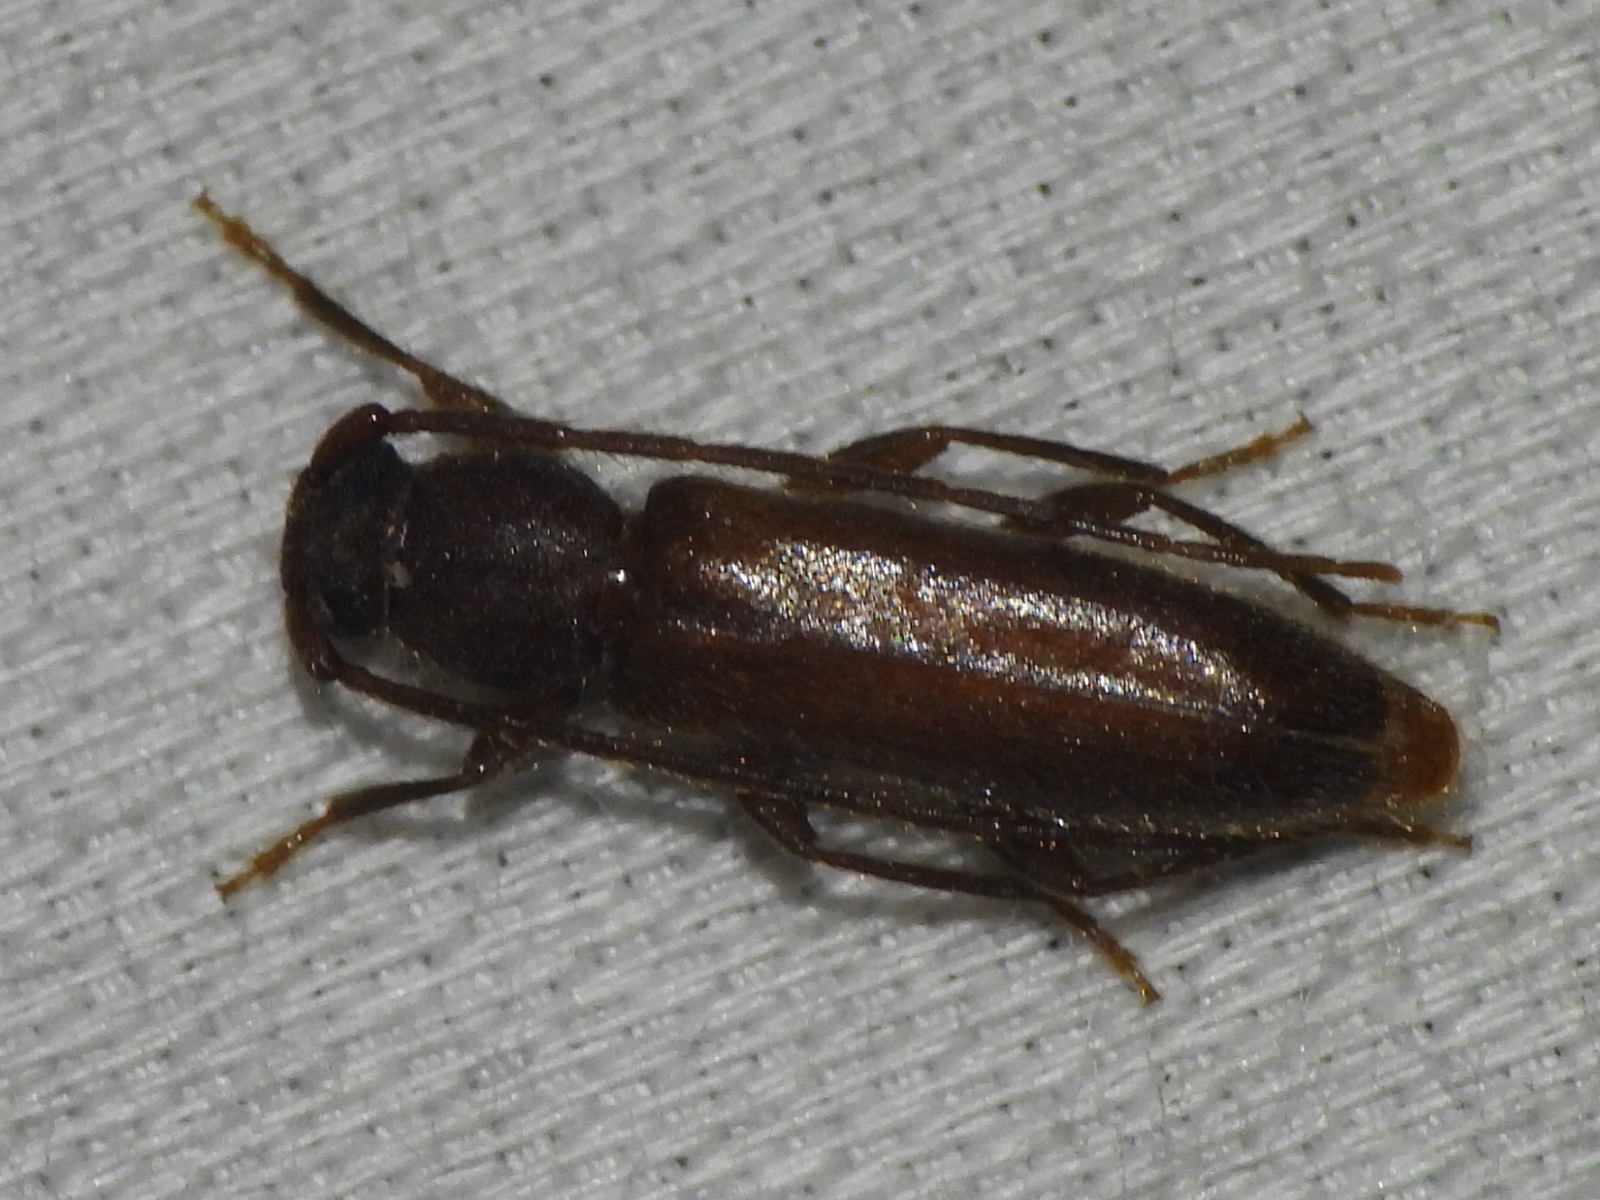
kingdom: Animalia
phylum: Arthropoda
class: Insecta
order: Coleoptera
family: Cerambycidae
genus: Geropa
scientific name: Geropa concolor
